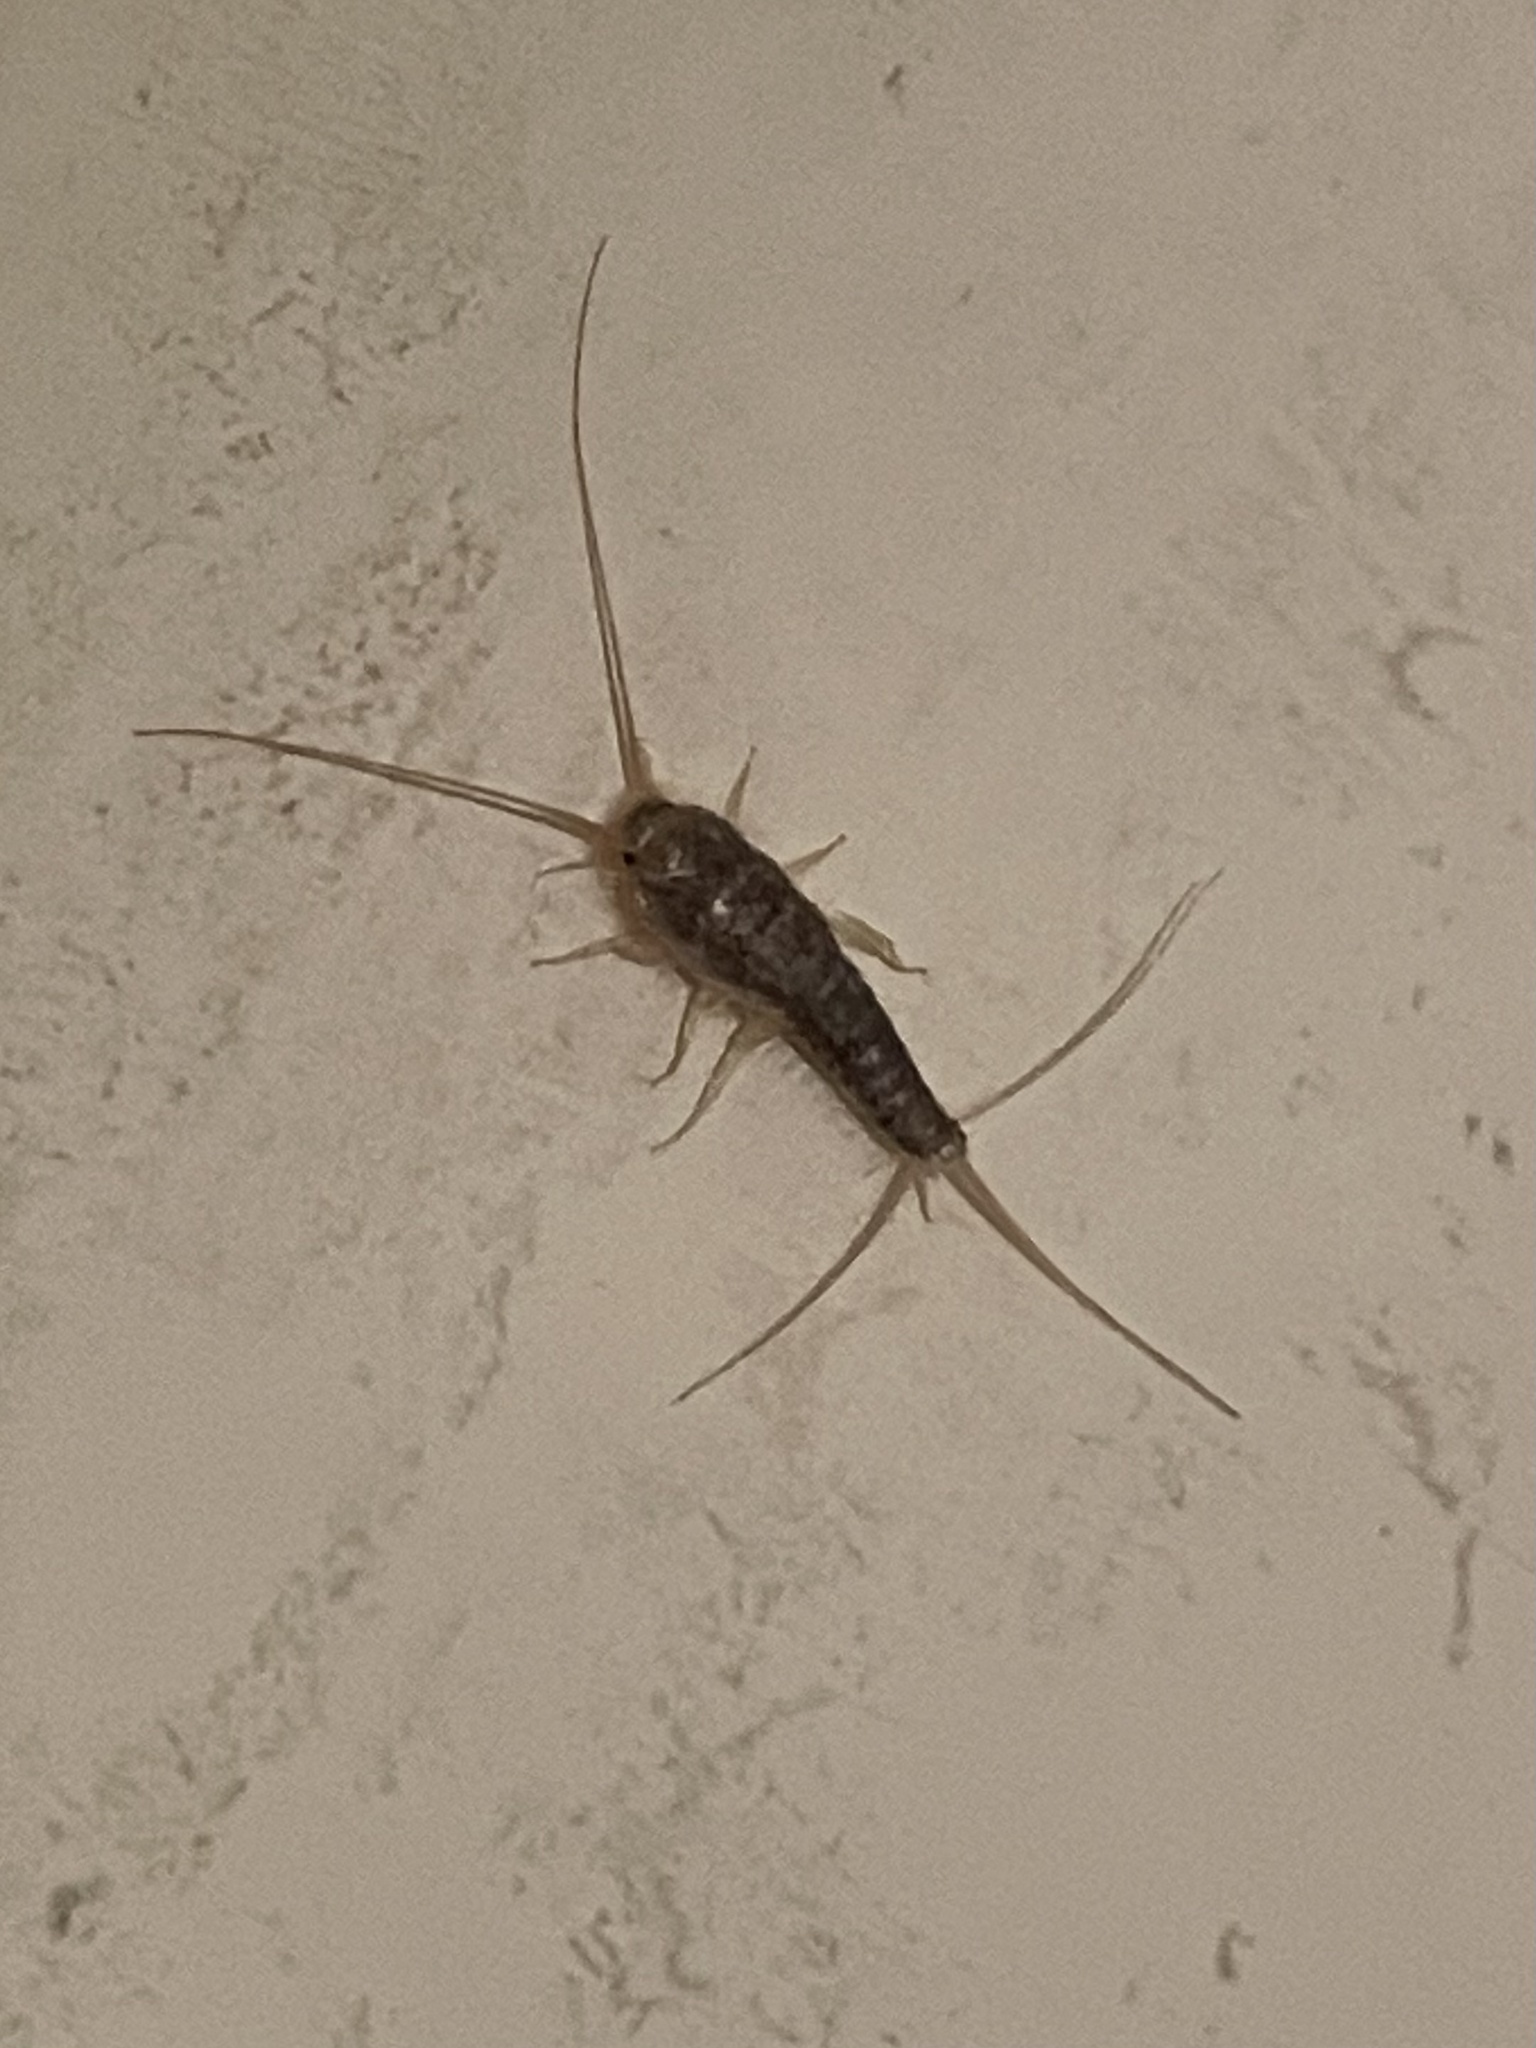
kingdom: Animalia
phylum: Arthropoda
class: Insecta
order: Zygentoma
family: Lepismatidae
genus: Ctenolepisma
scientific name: Ctenolepisma longicaudatum
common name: Silverfish
